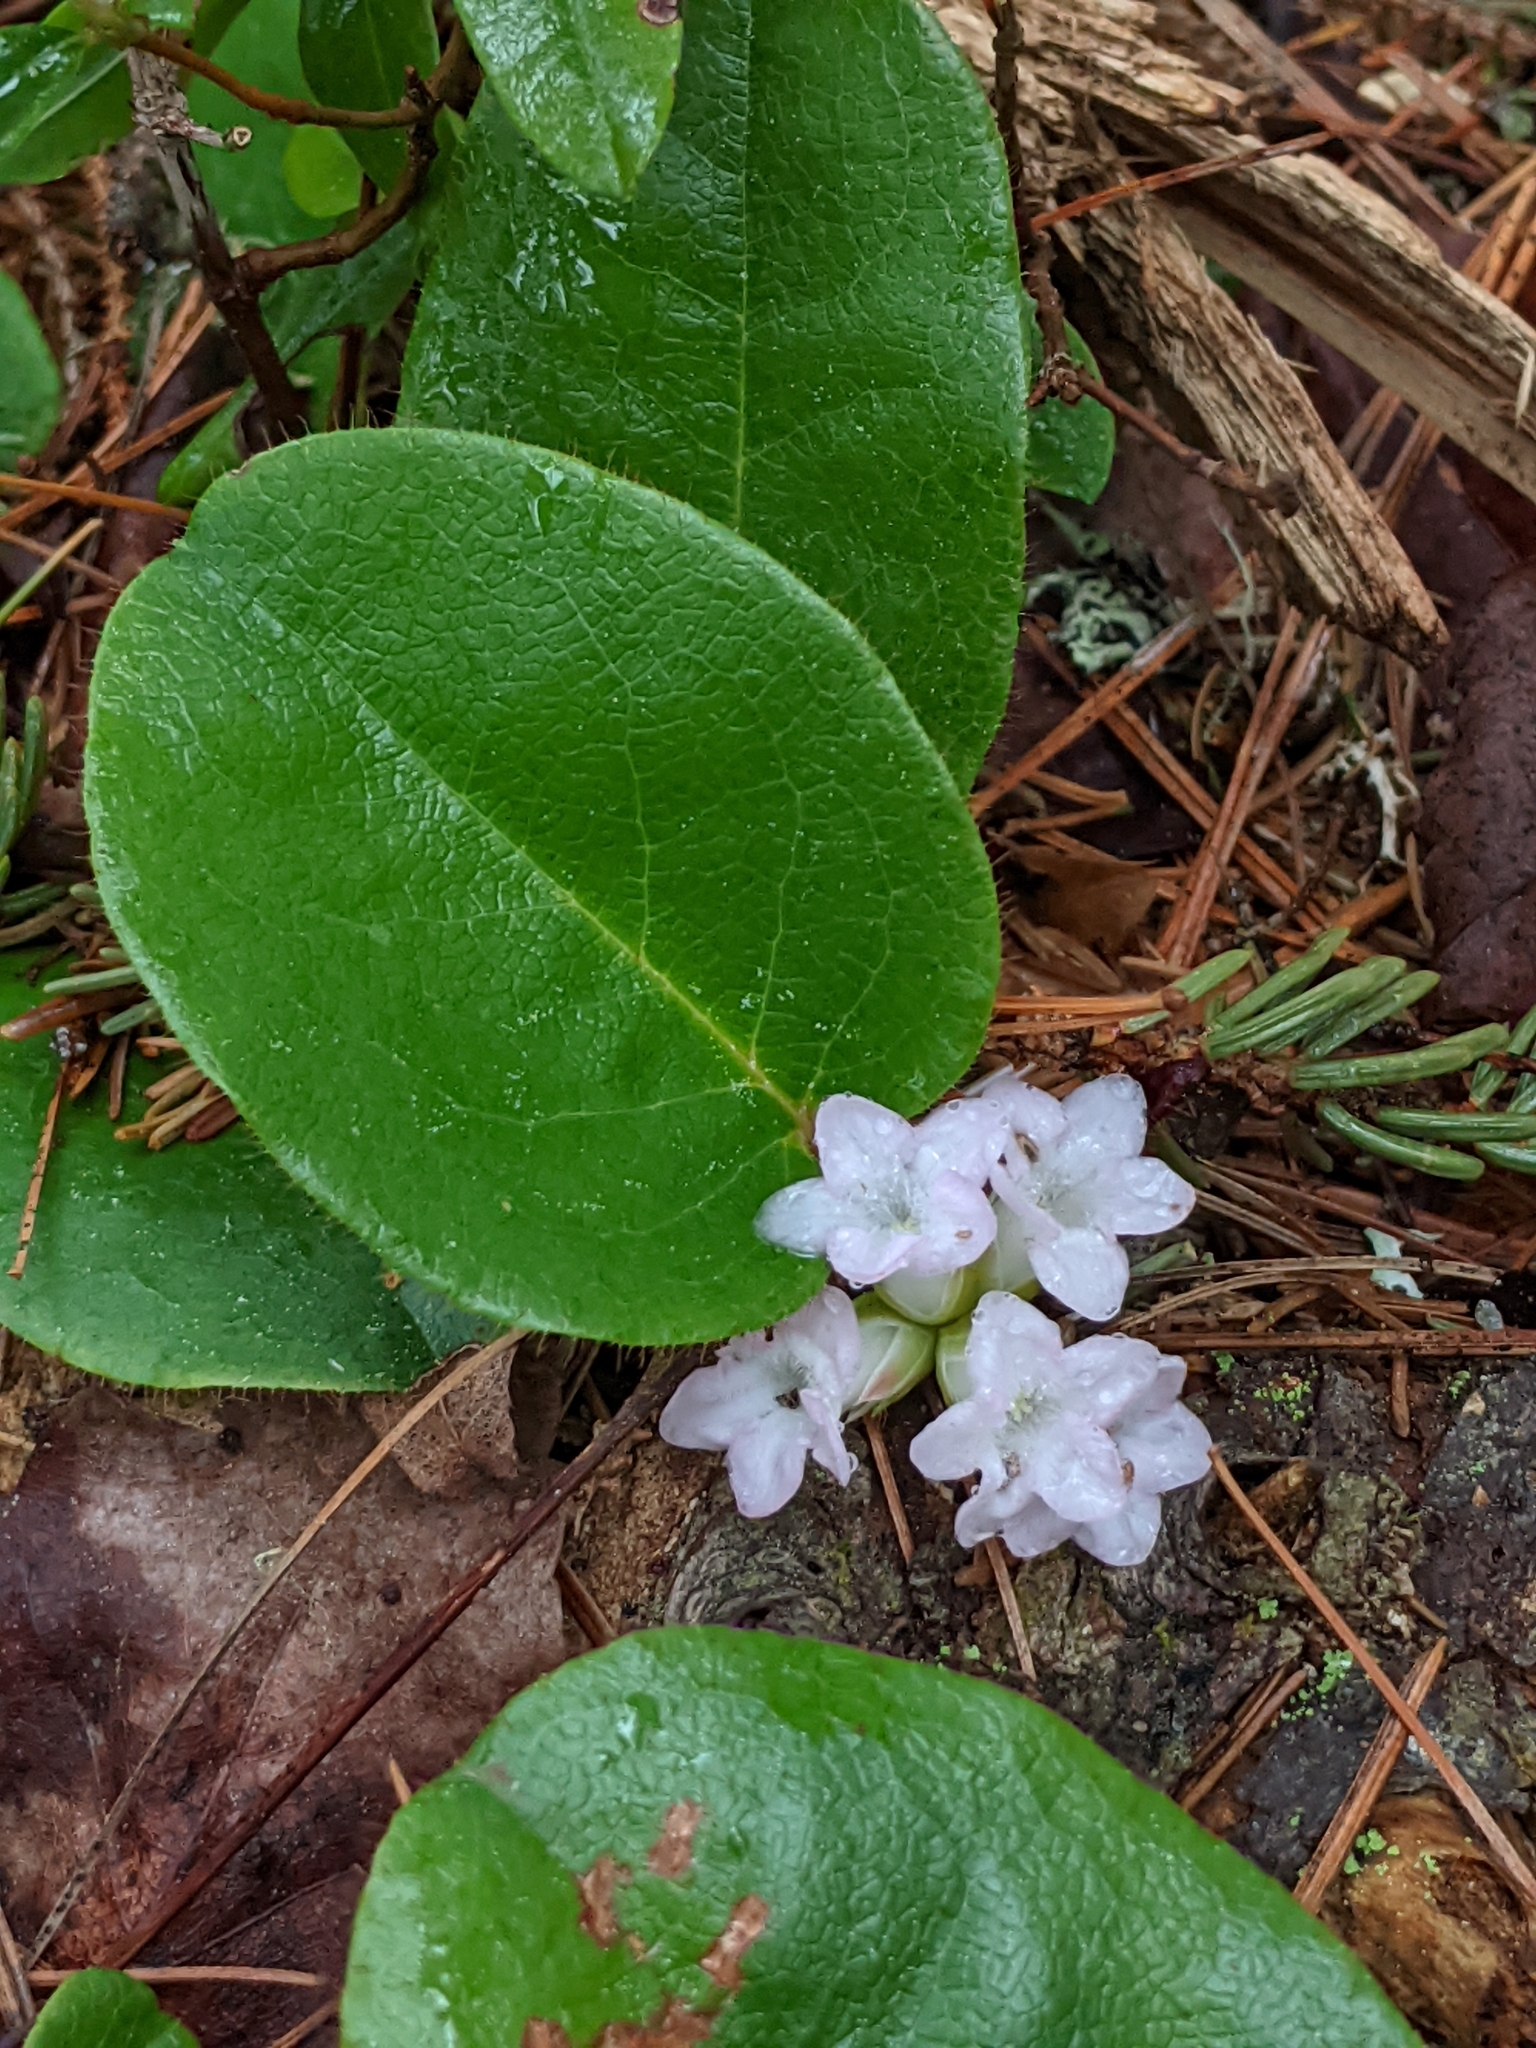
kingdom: Plantae
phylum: Tracheophyta
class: Magnoliopsida
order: Ericales
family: Ericaceae
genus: Epigaea
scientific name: Epigaea repens
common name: Gravelroot
